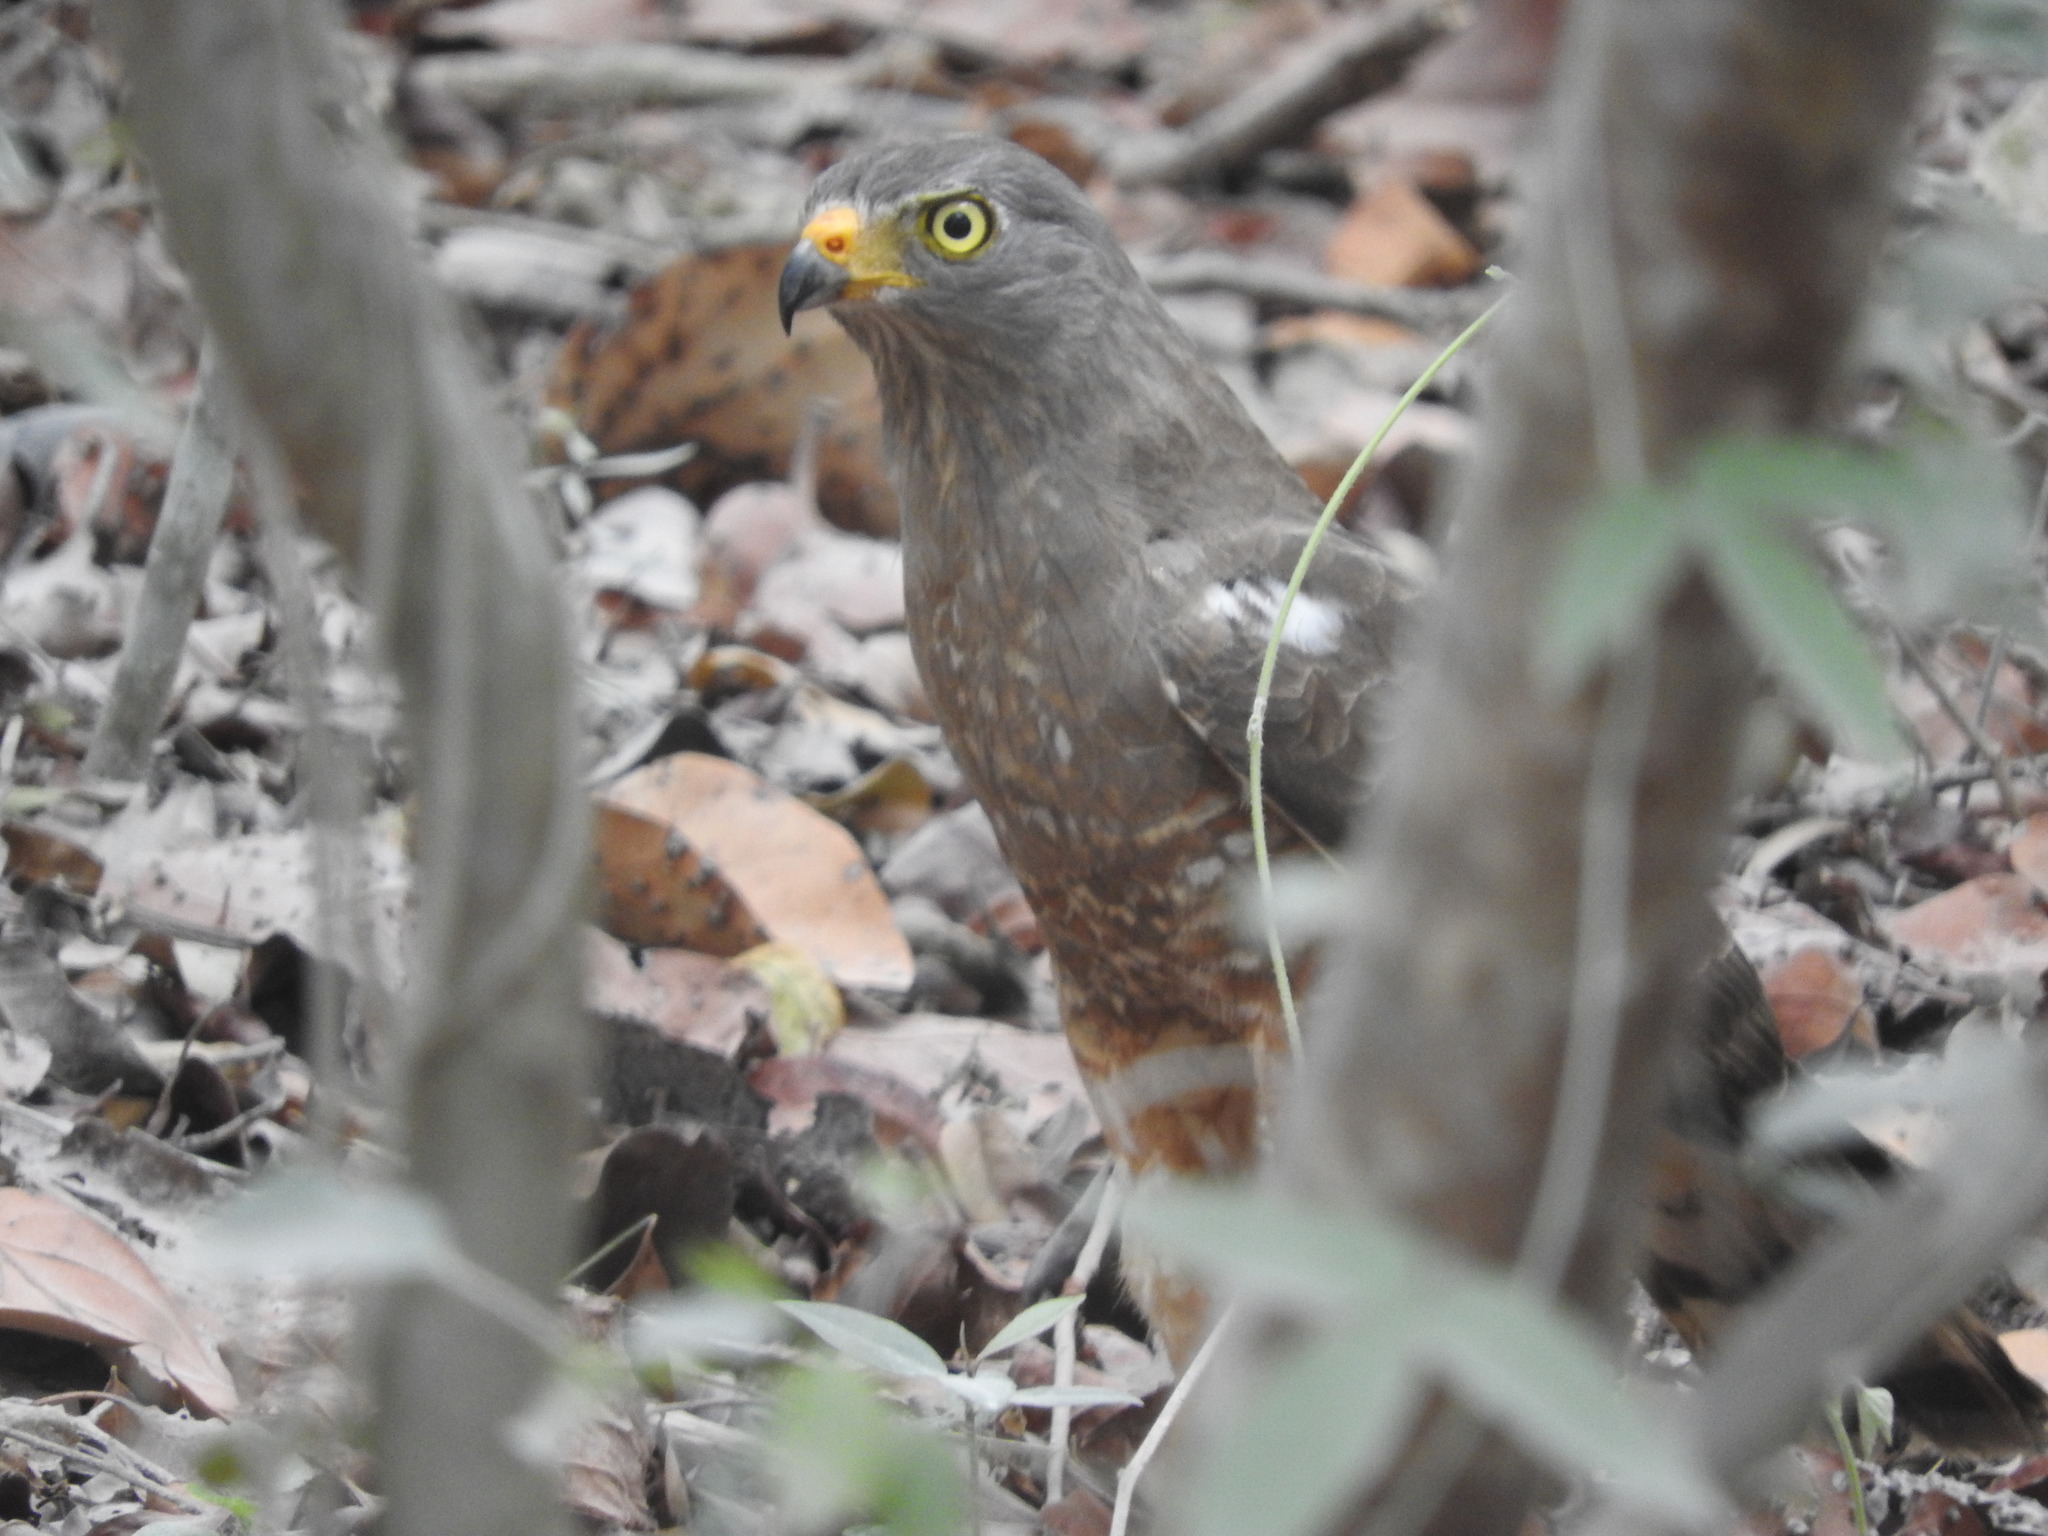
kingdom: Animalia
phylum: Chordata
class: Aves
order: Accipitriformes
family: Accipitridae
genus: Rupornis
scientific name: Rupornis magnirostris
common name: Roadside hawk
